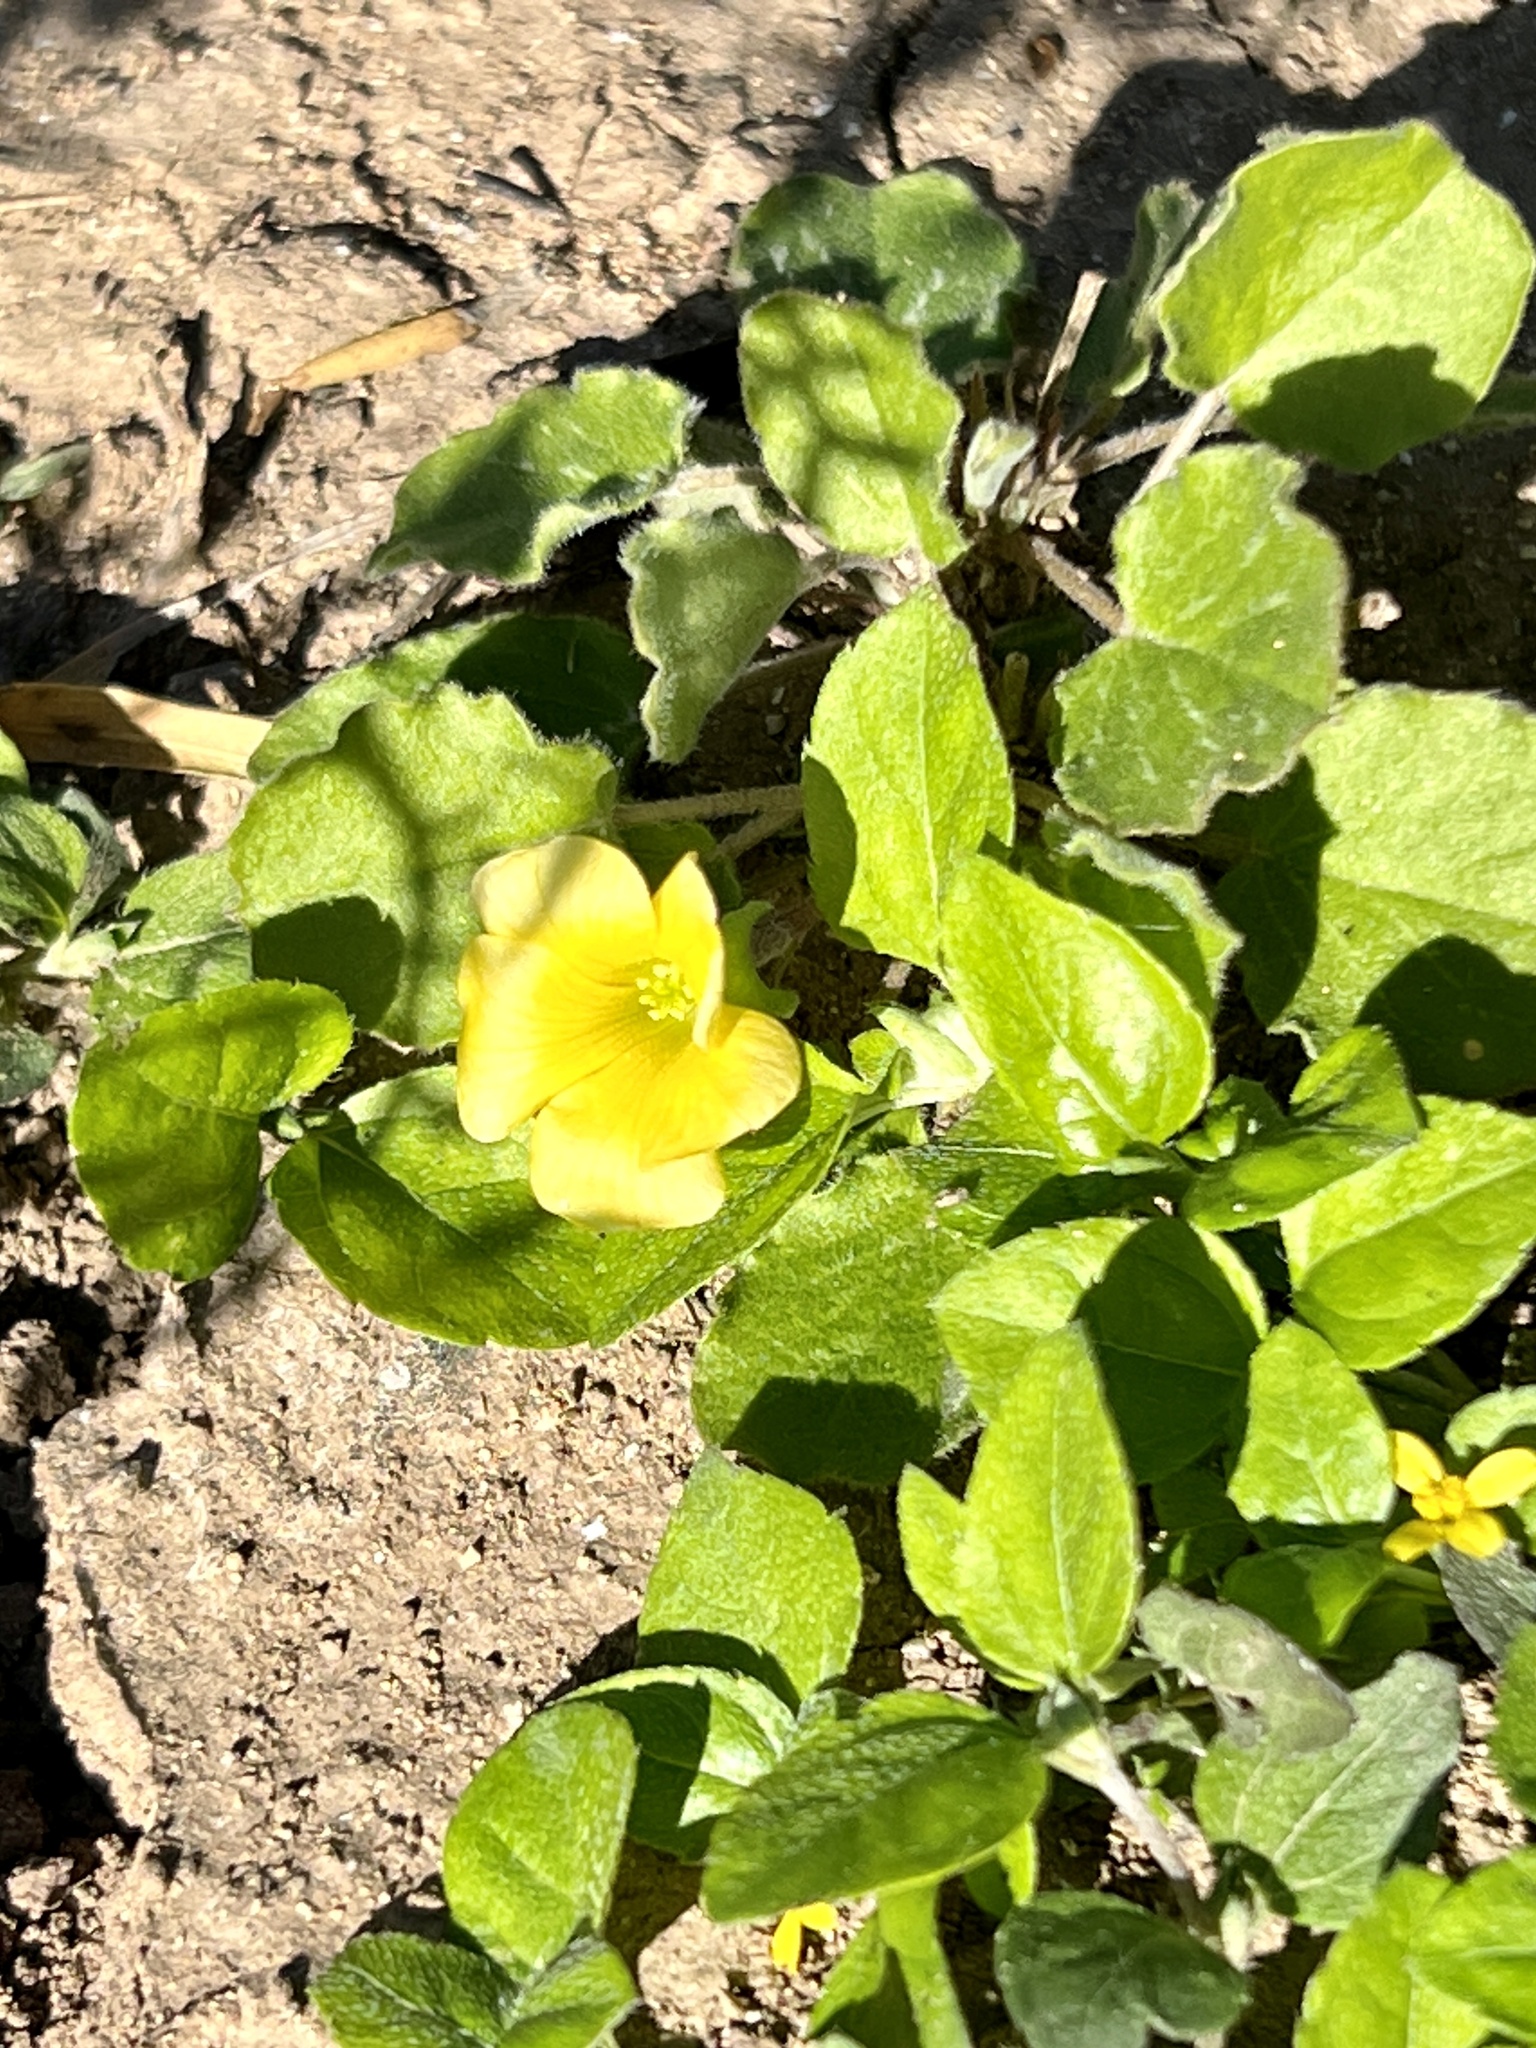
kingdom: Plantae
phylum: Tracheophyta
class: Magnoliopsida
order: Oxalidales
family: Oxalidaceae
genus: Oxalis
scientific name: Oxalis dichondrifolia
